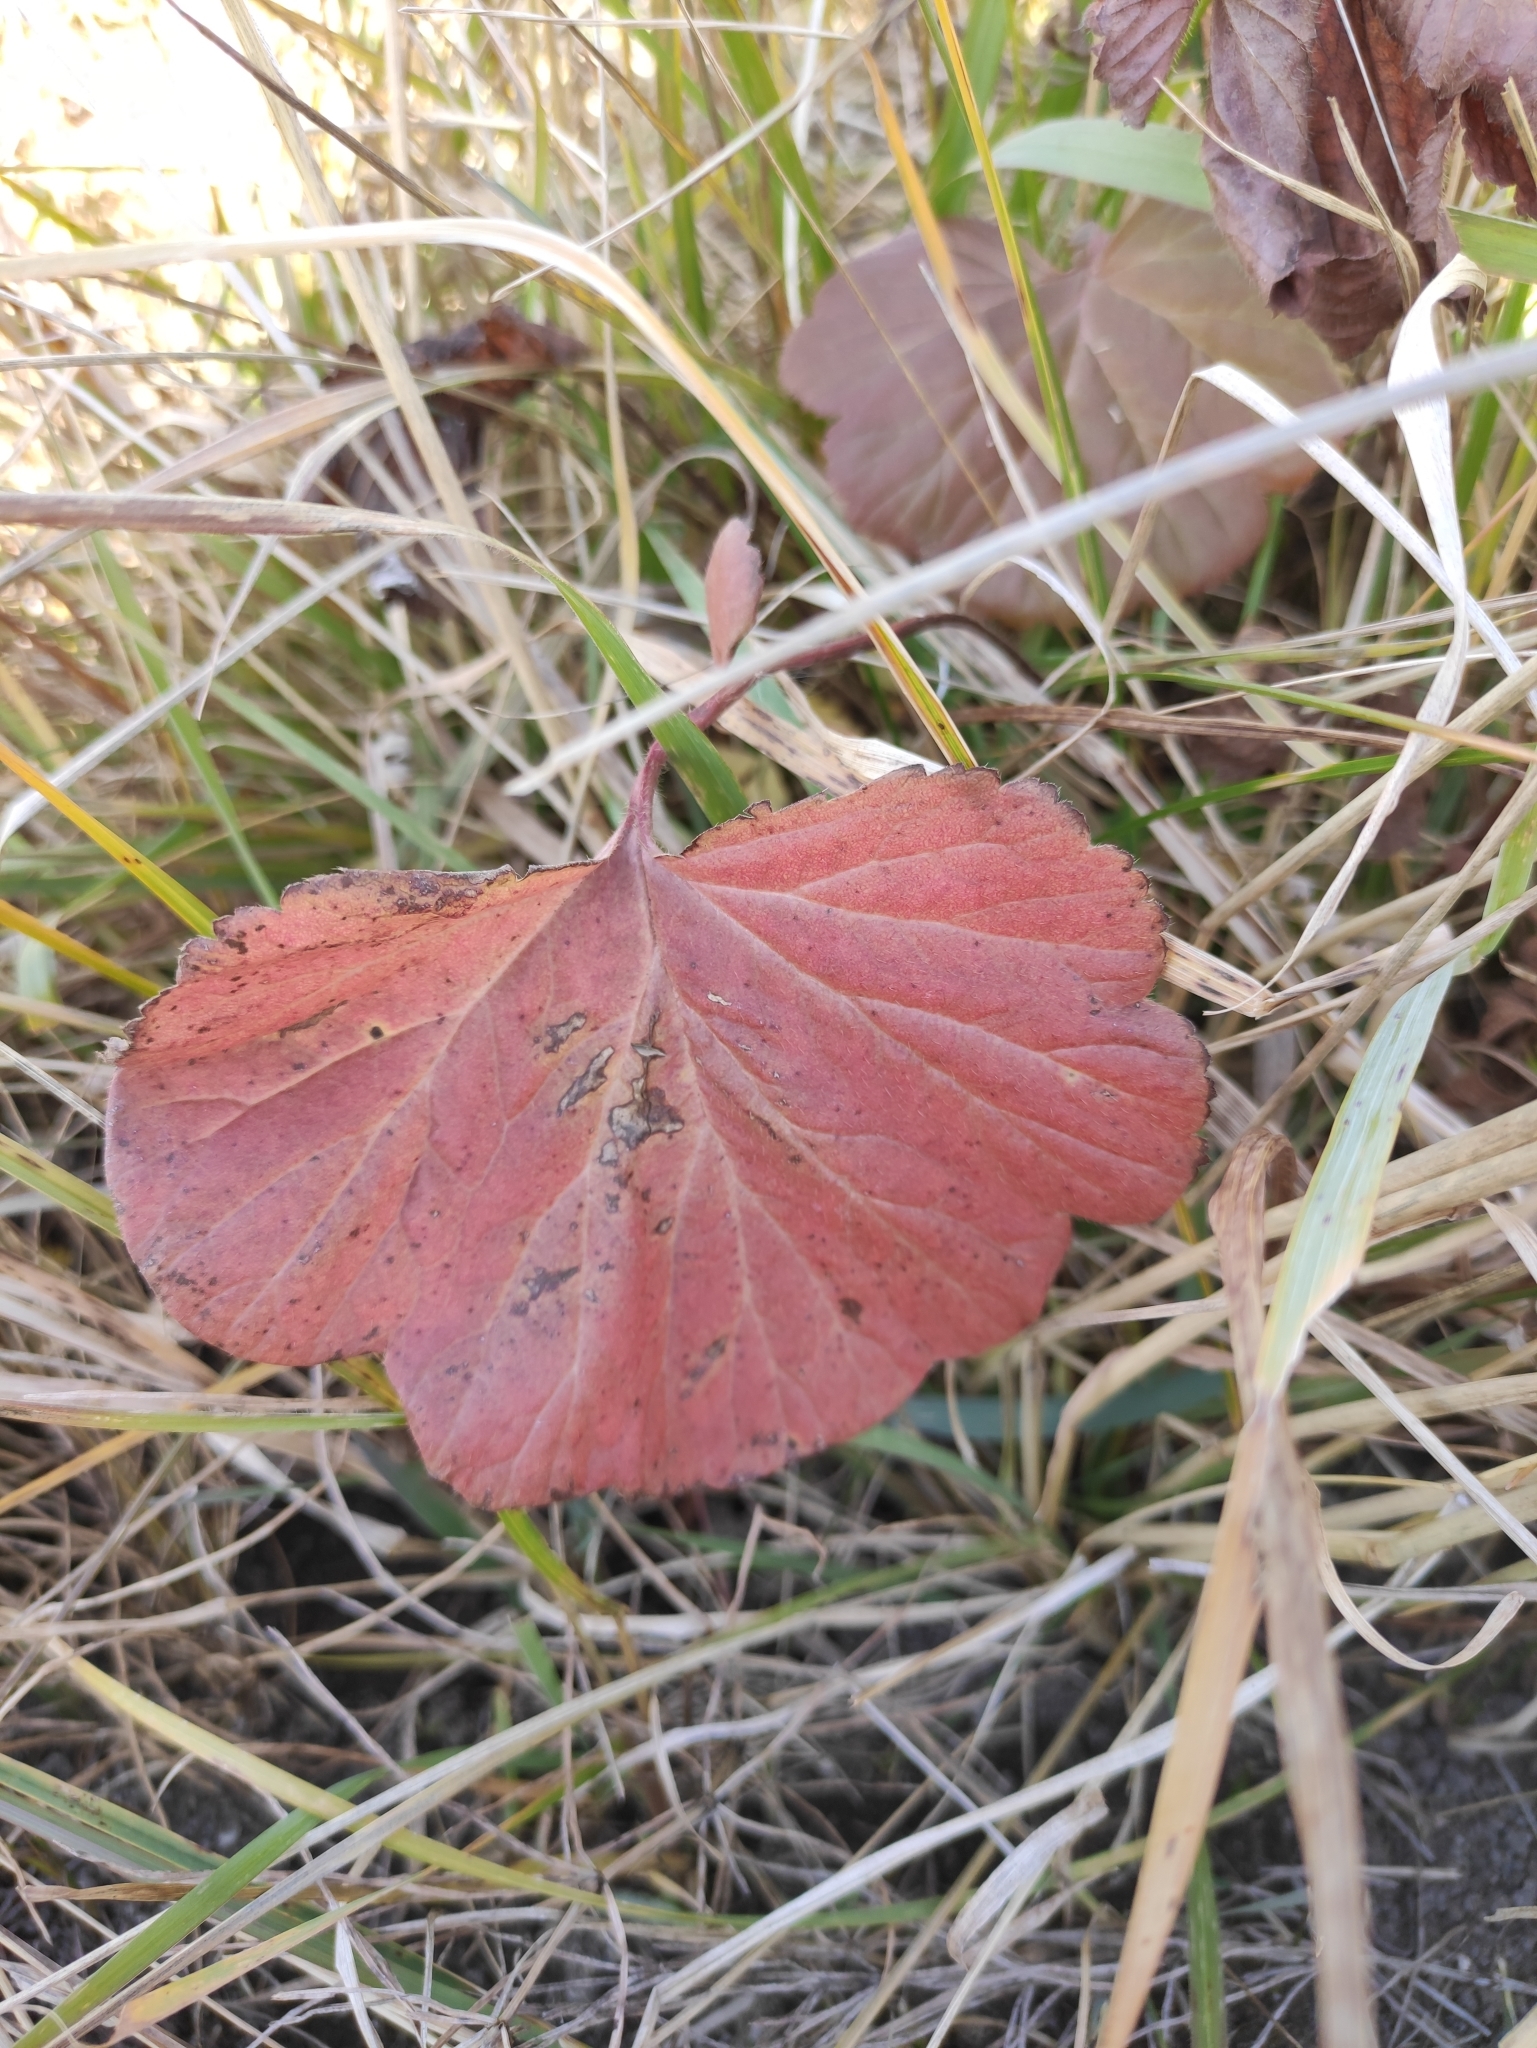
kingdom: Plantae
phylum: Tracheophyta
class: Magnoliopsida
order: Rosales
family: Rosaceae
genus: Geum
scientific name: Geum aleppicum
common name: Yellow avens
